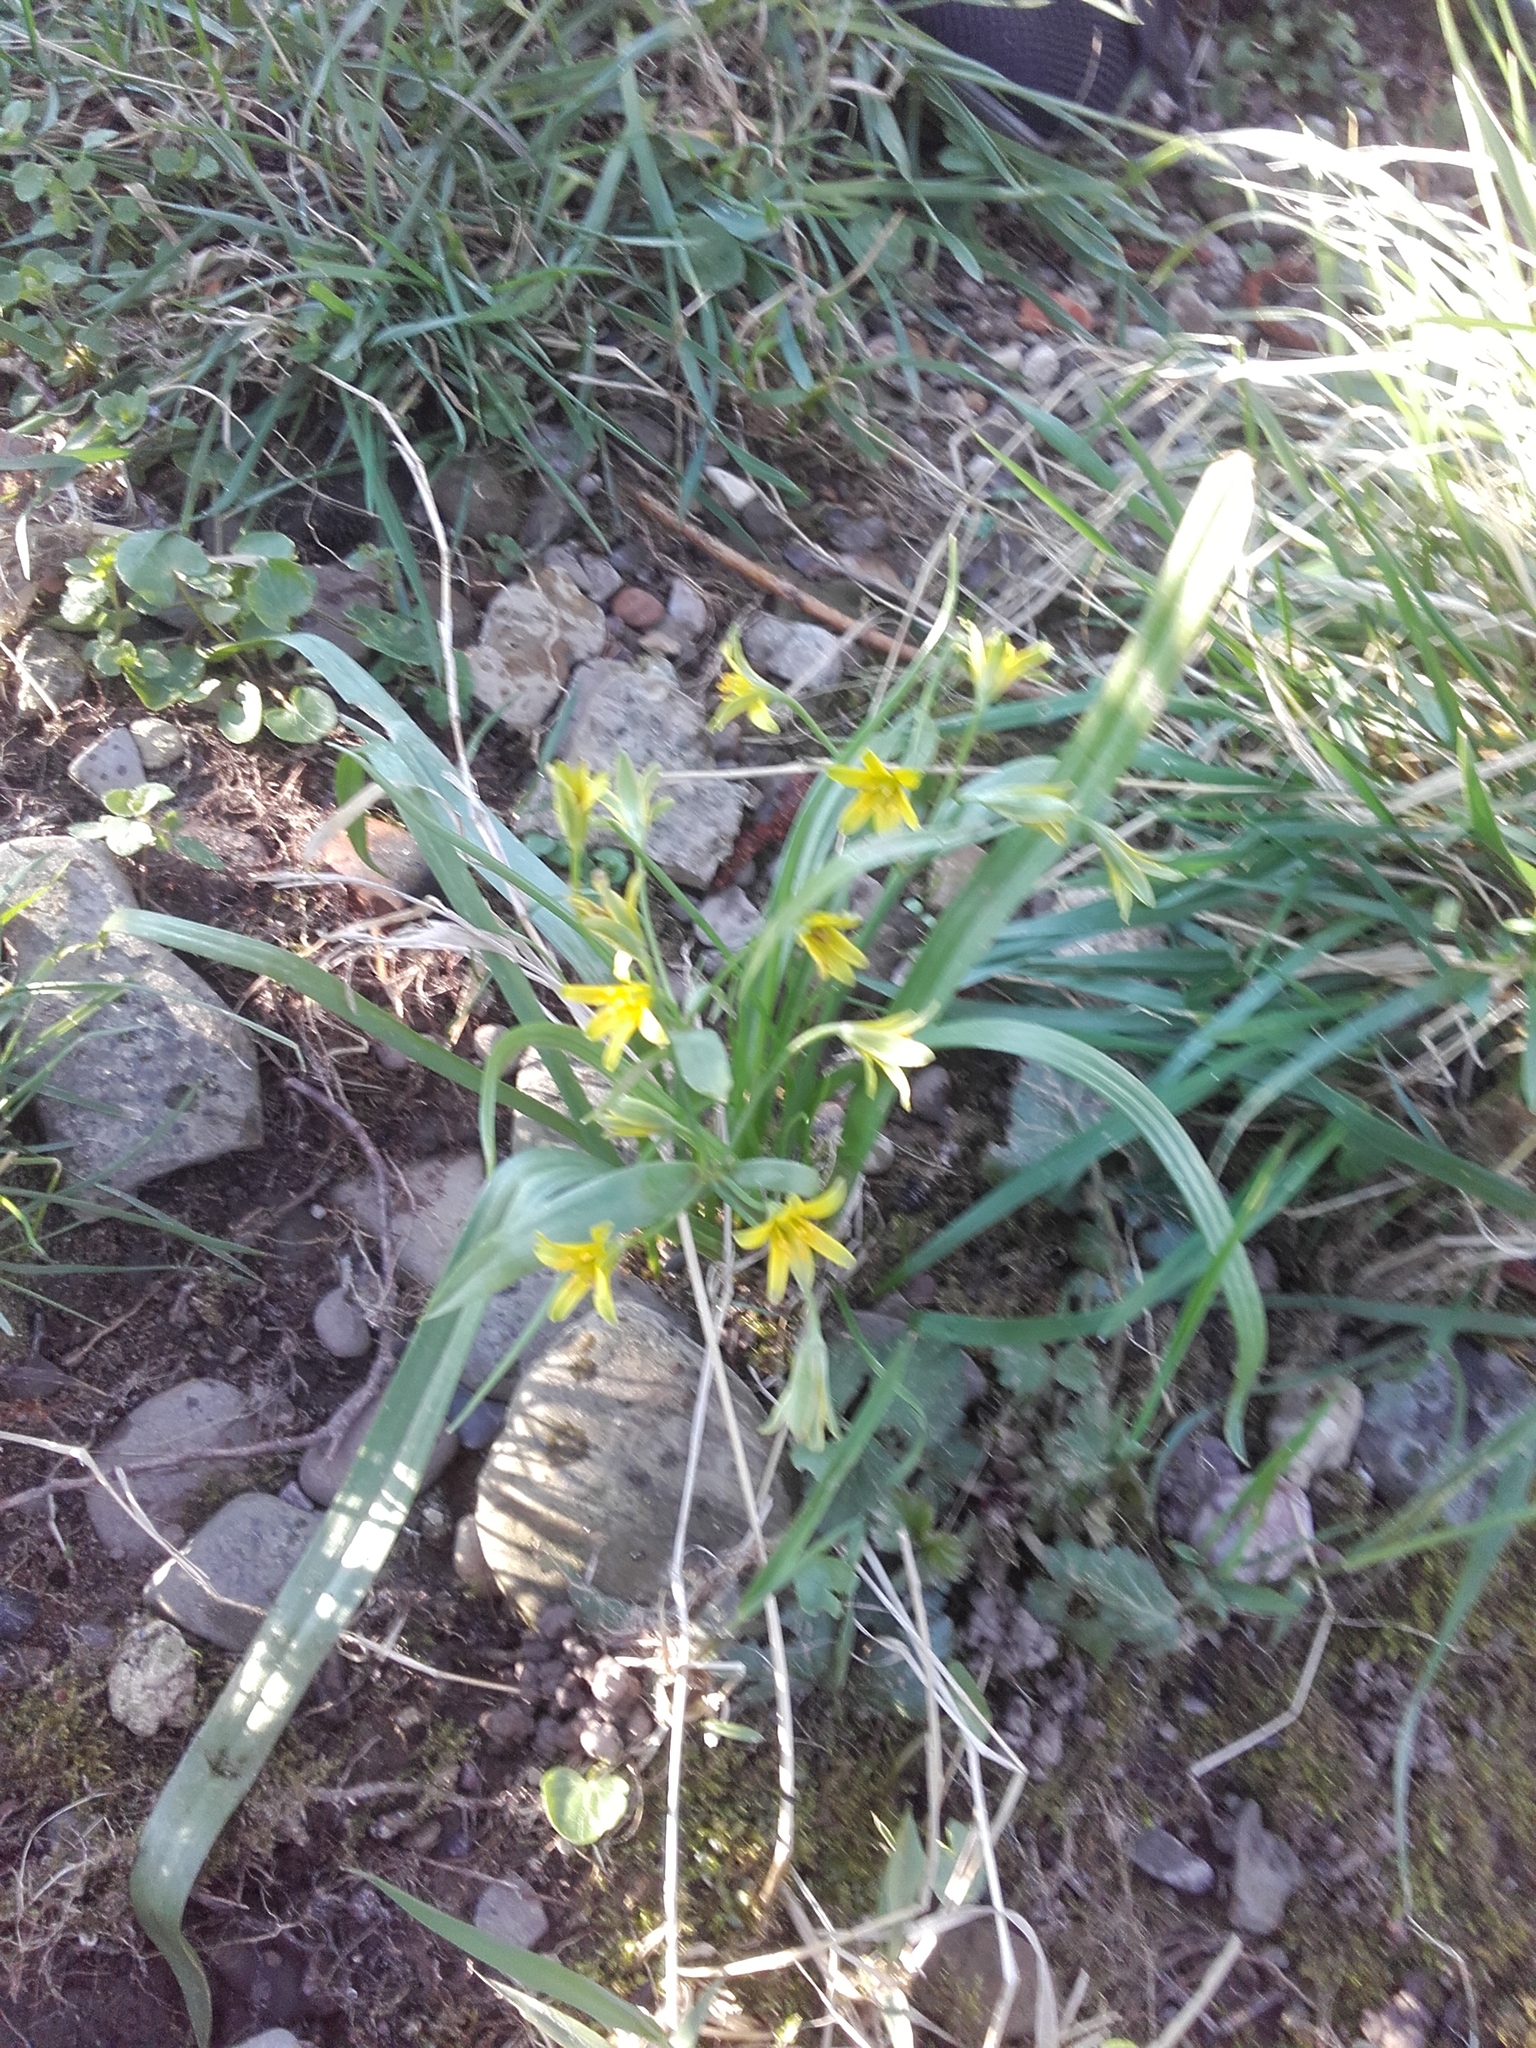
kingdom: Plantae
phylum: Tracheophyta
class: Liliopsida
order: Liliales
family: Liliaceae
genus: Gagea
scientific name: Gagea lutea
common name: Yellow star-of-bethlehem
